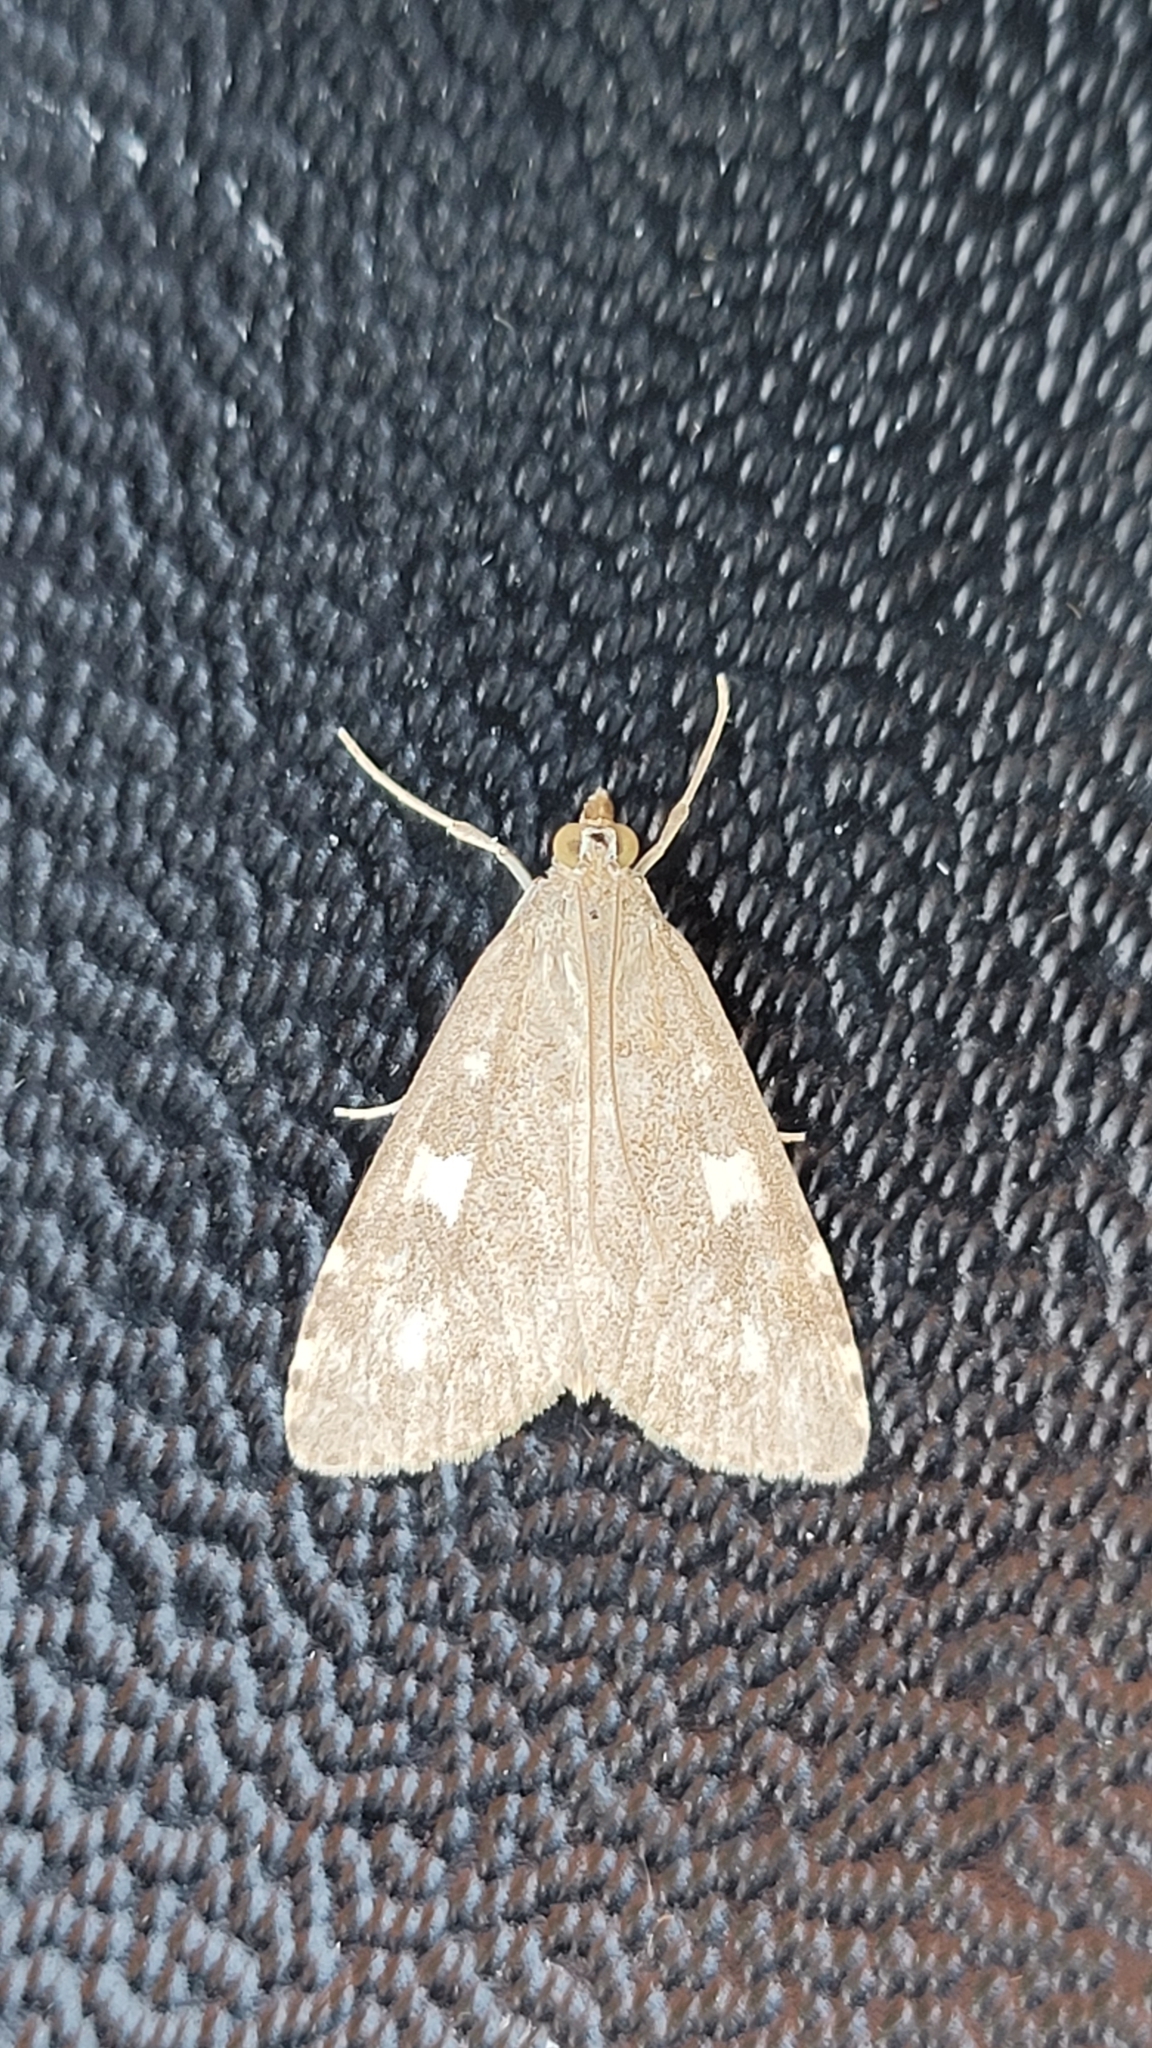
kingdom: Animalia
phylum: Arthropoda
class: Insecta
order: Lepidoptera
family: Crambidae
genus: Udea
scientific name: Udea olivalis
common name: Olive pearl
